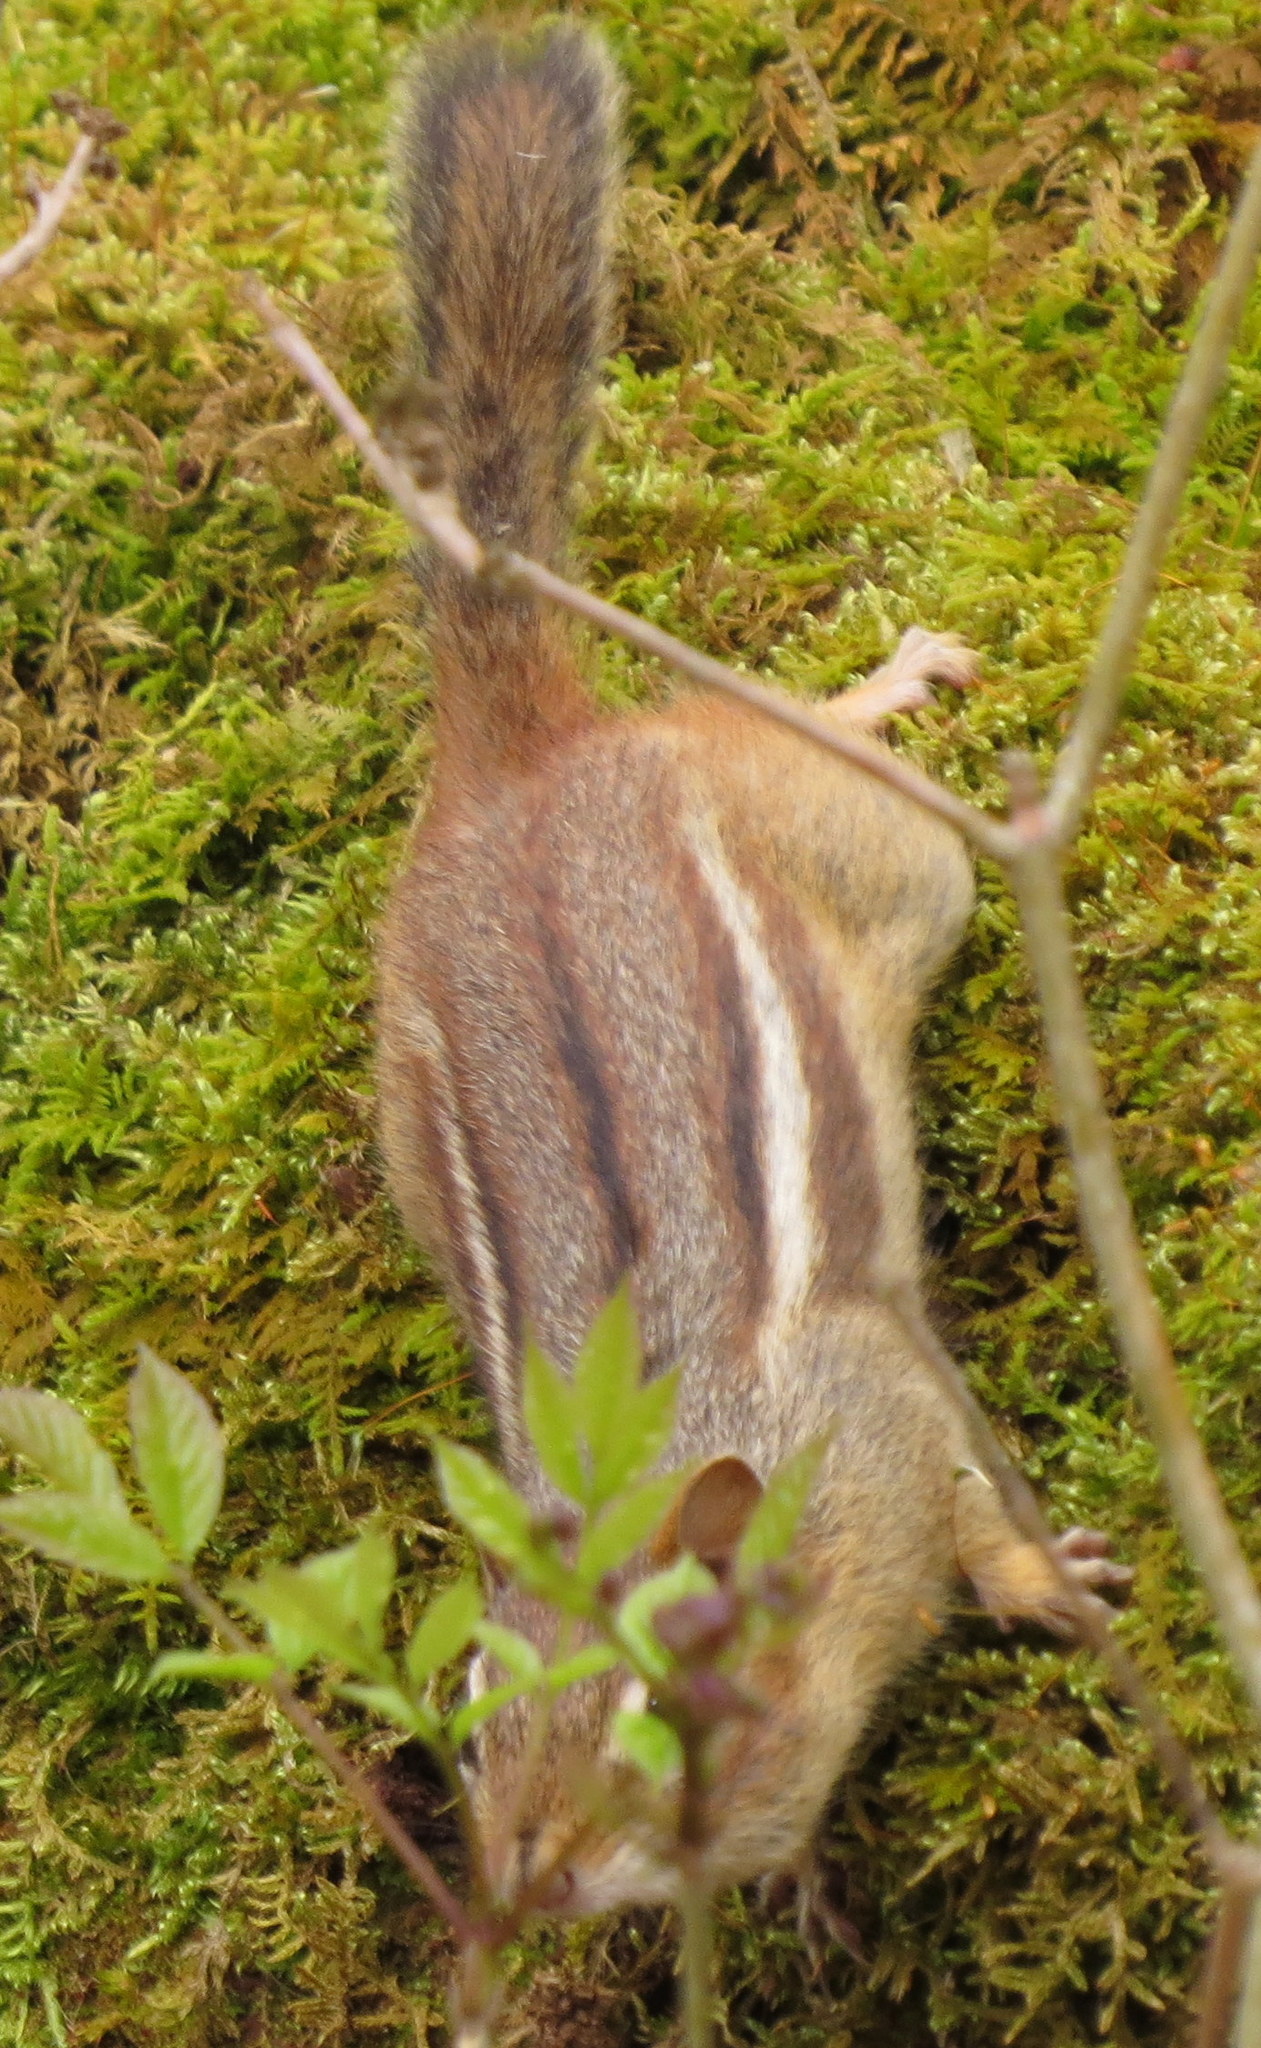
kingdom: Animalia
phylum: Chordata
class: Mammalia
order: Rodentia
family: Sciuridae
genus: Tamias
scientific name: Tamias striatus
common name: Eastern chipmunk
